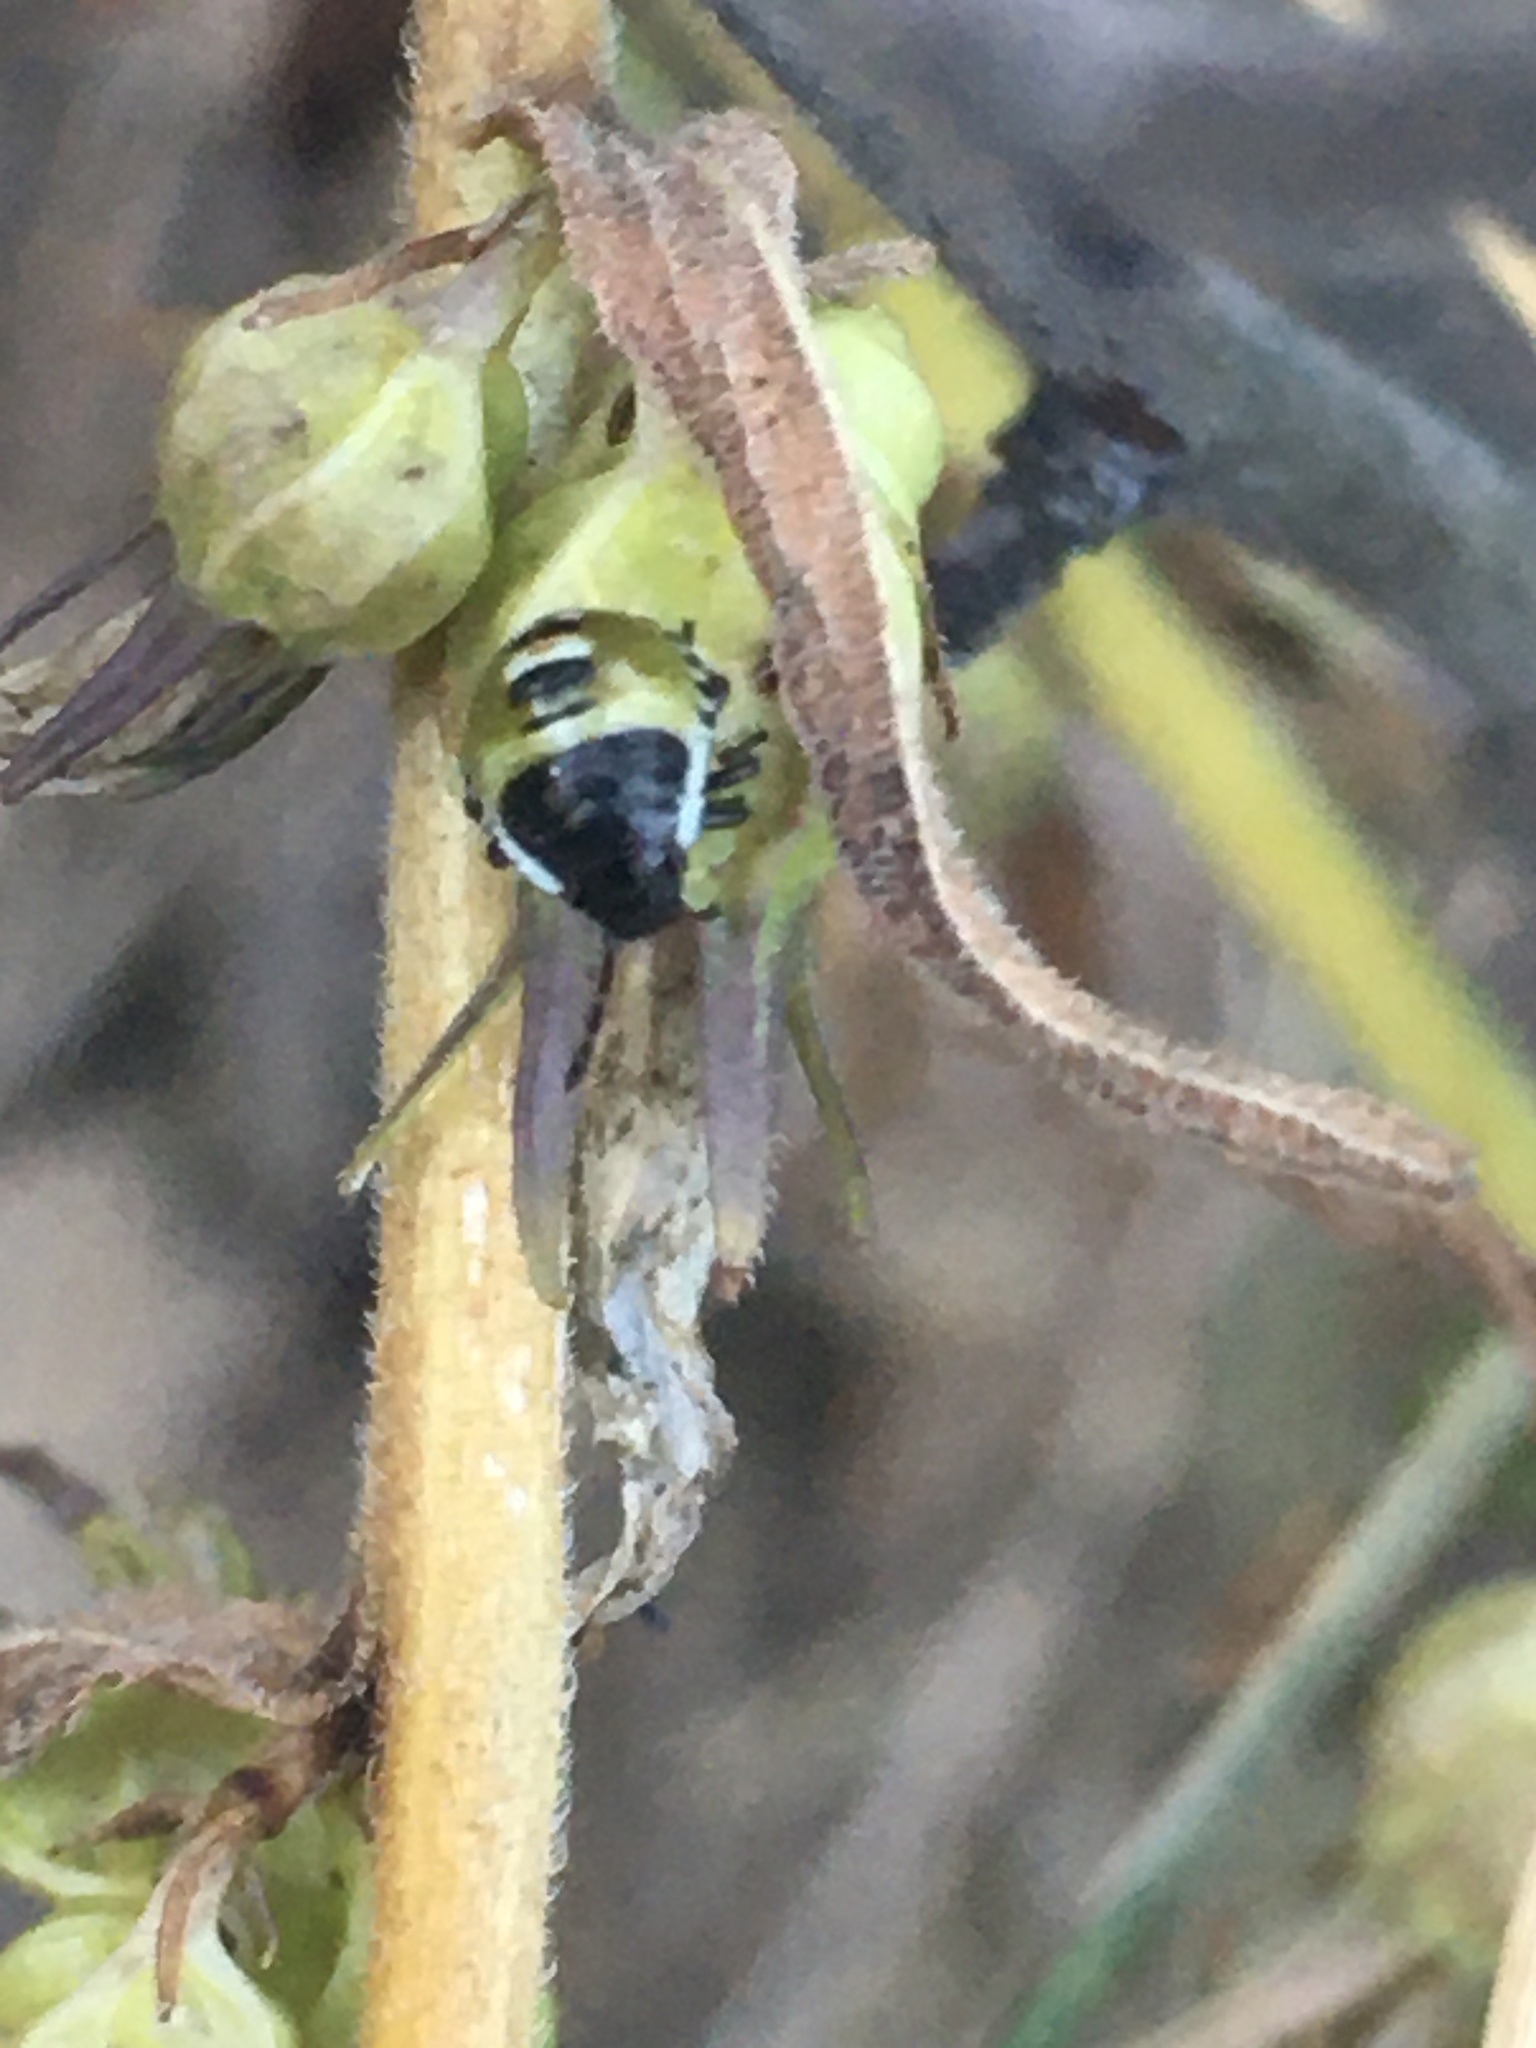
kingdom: Animalia
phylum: Arthropoda
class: Insecta
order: Hemiptera
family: Pentatomidae
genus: Palomena
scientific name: Palomena prasina
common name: Green shieldbug
